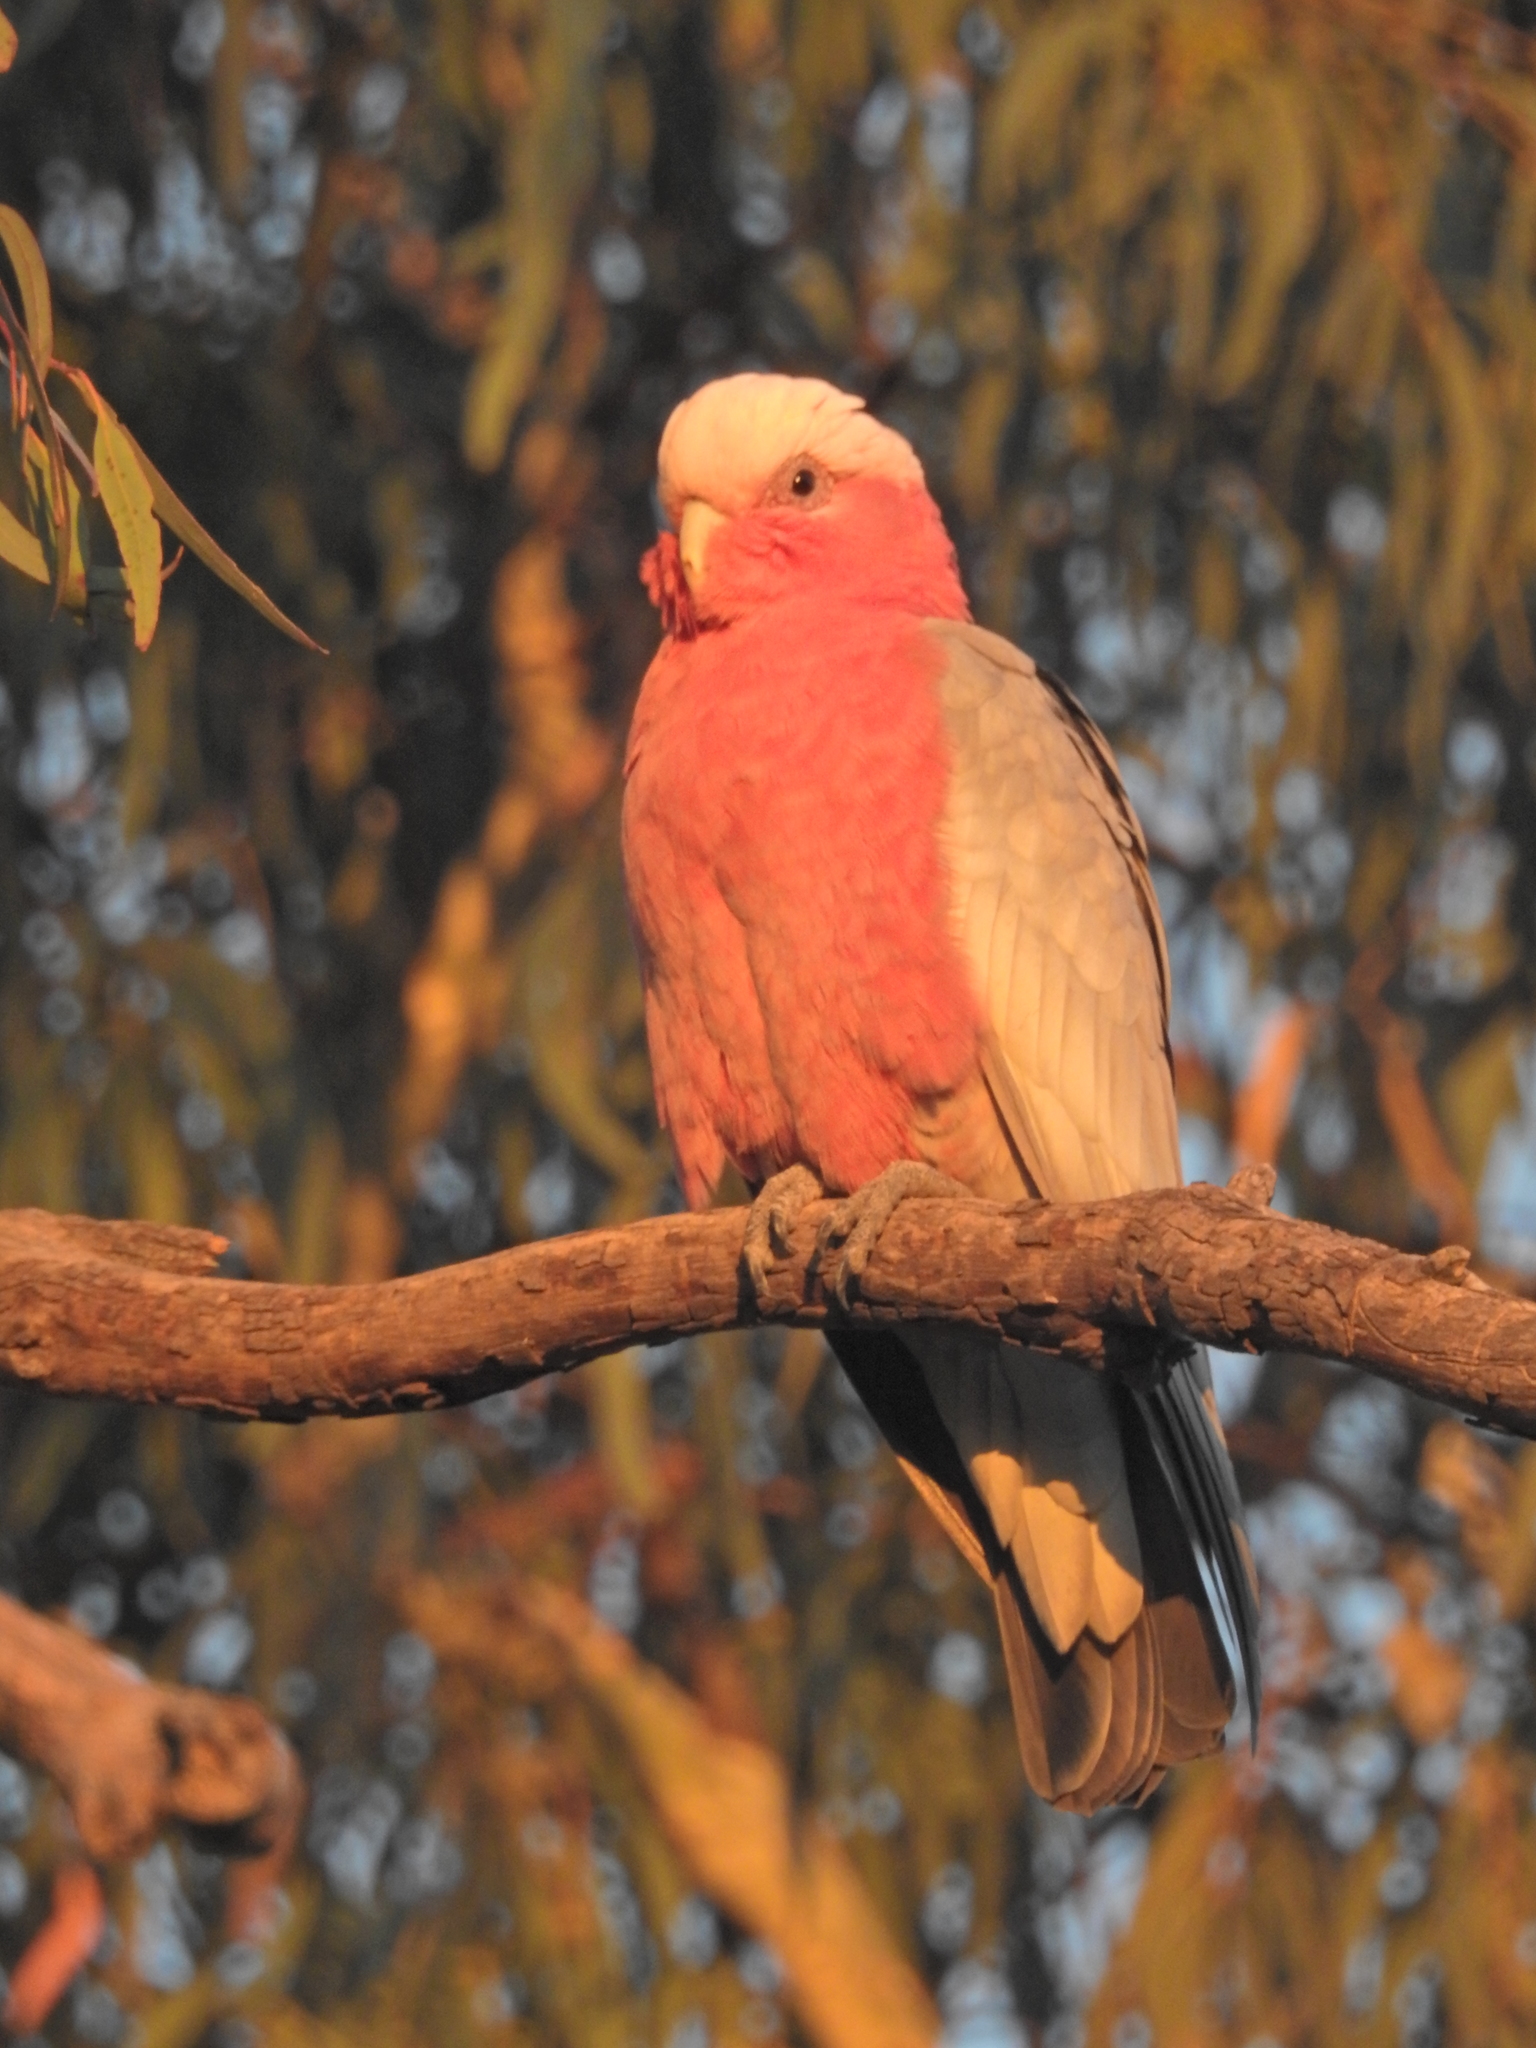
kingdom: Animalia
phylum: Chordata
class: Aves
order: Psittaciformes
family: Psittacidae
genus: Eolophus
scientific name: Eolophus roseicapilla
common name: Galah
